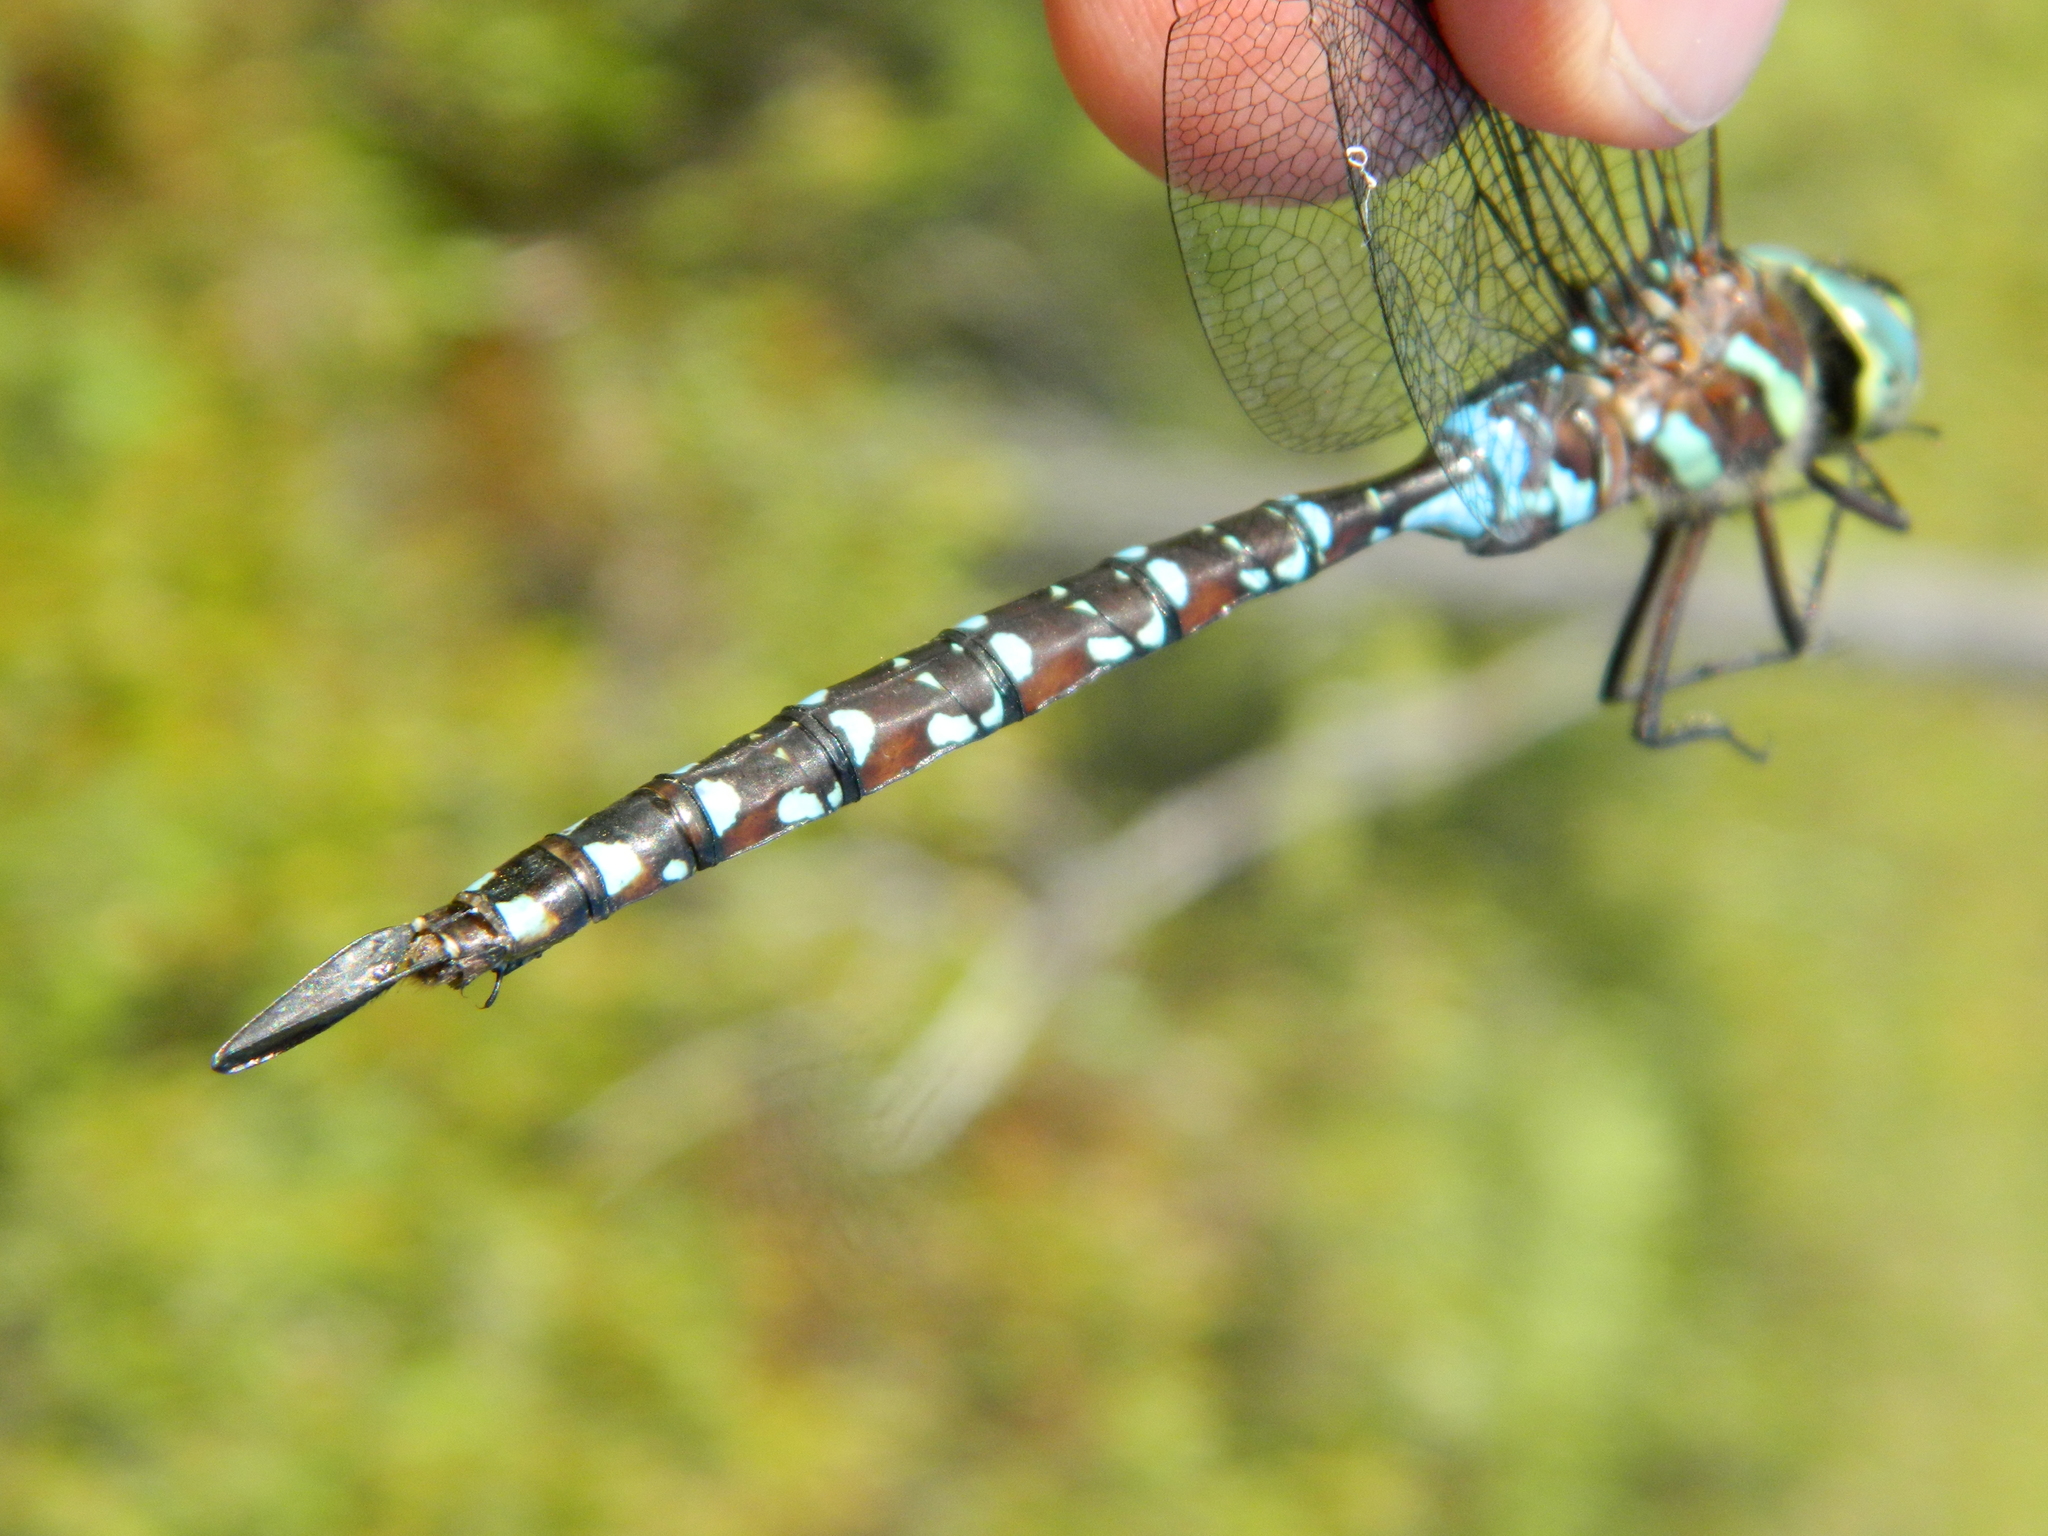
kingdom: Animalia
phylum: Arthropoda
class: Insecta
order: Odonata
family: Aeshnidae
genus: Aeshna
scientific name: Aeshna tuberculifera
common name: Aeschne à tubercules
